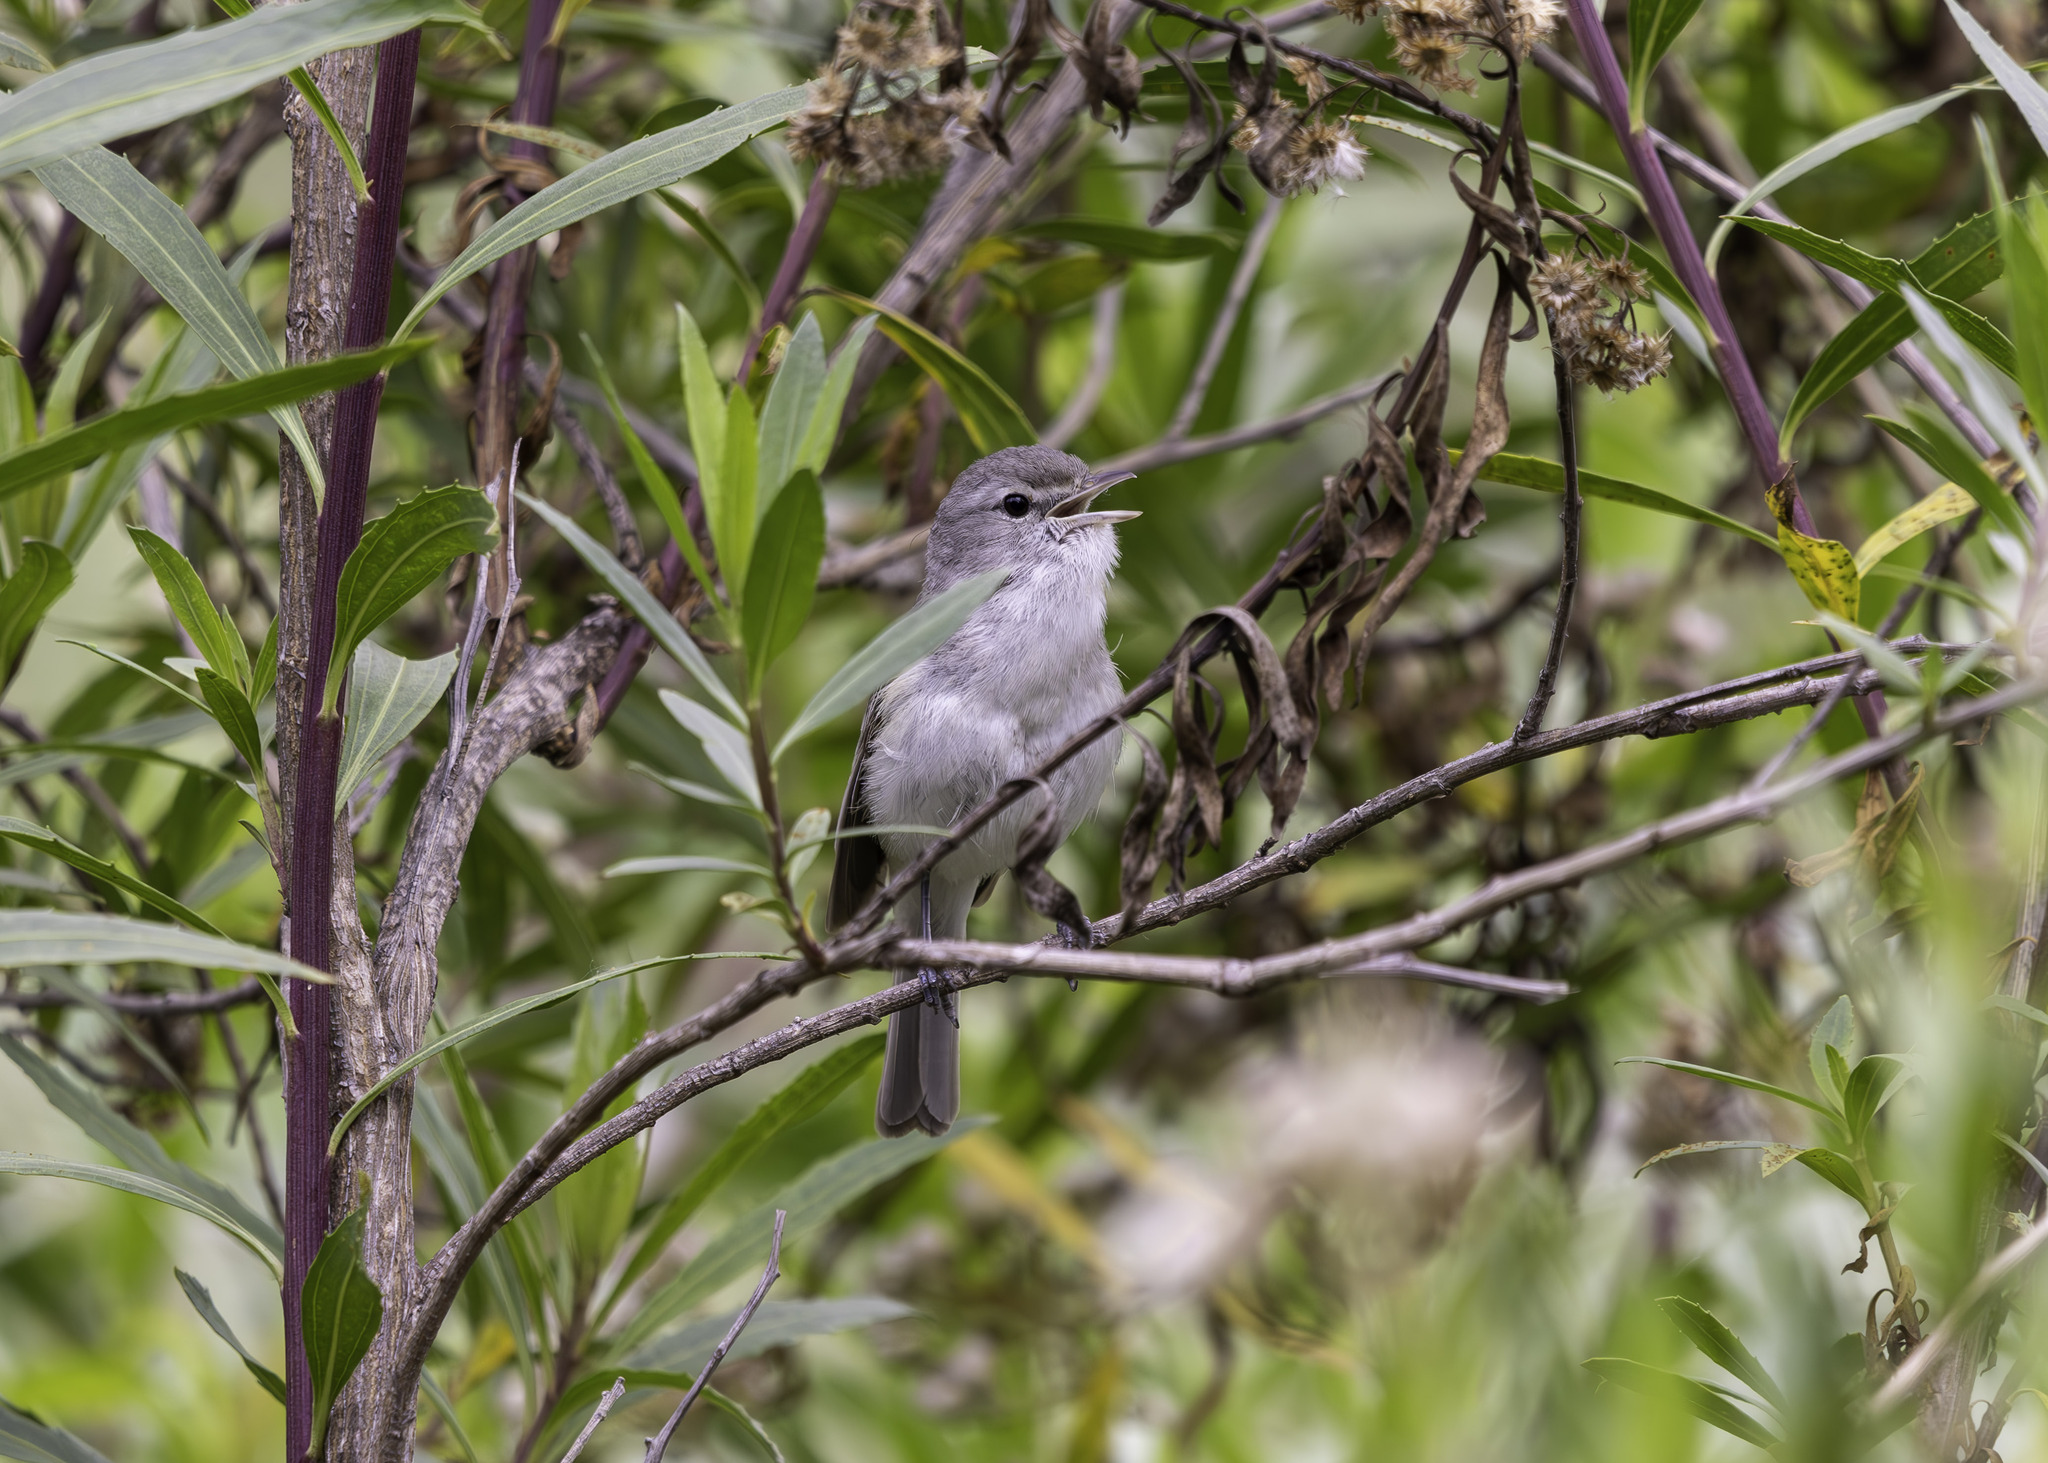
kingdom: Animalia
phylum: Chordata
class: Aves
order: Passeriformes
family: Vireonidae
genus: Vireo
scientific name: Vireo bellii
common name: Bell's vireo
